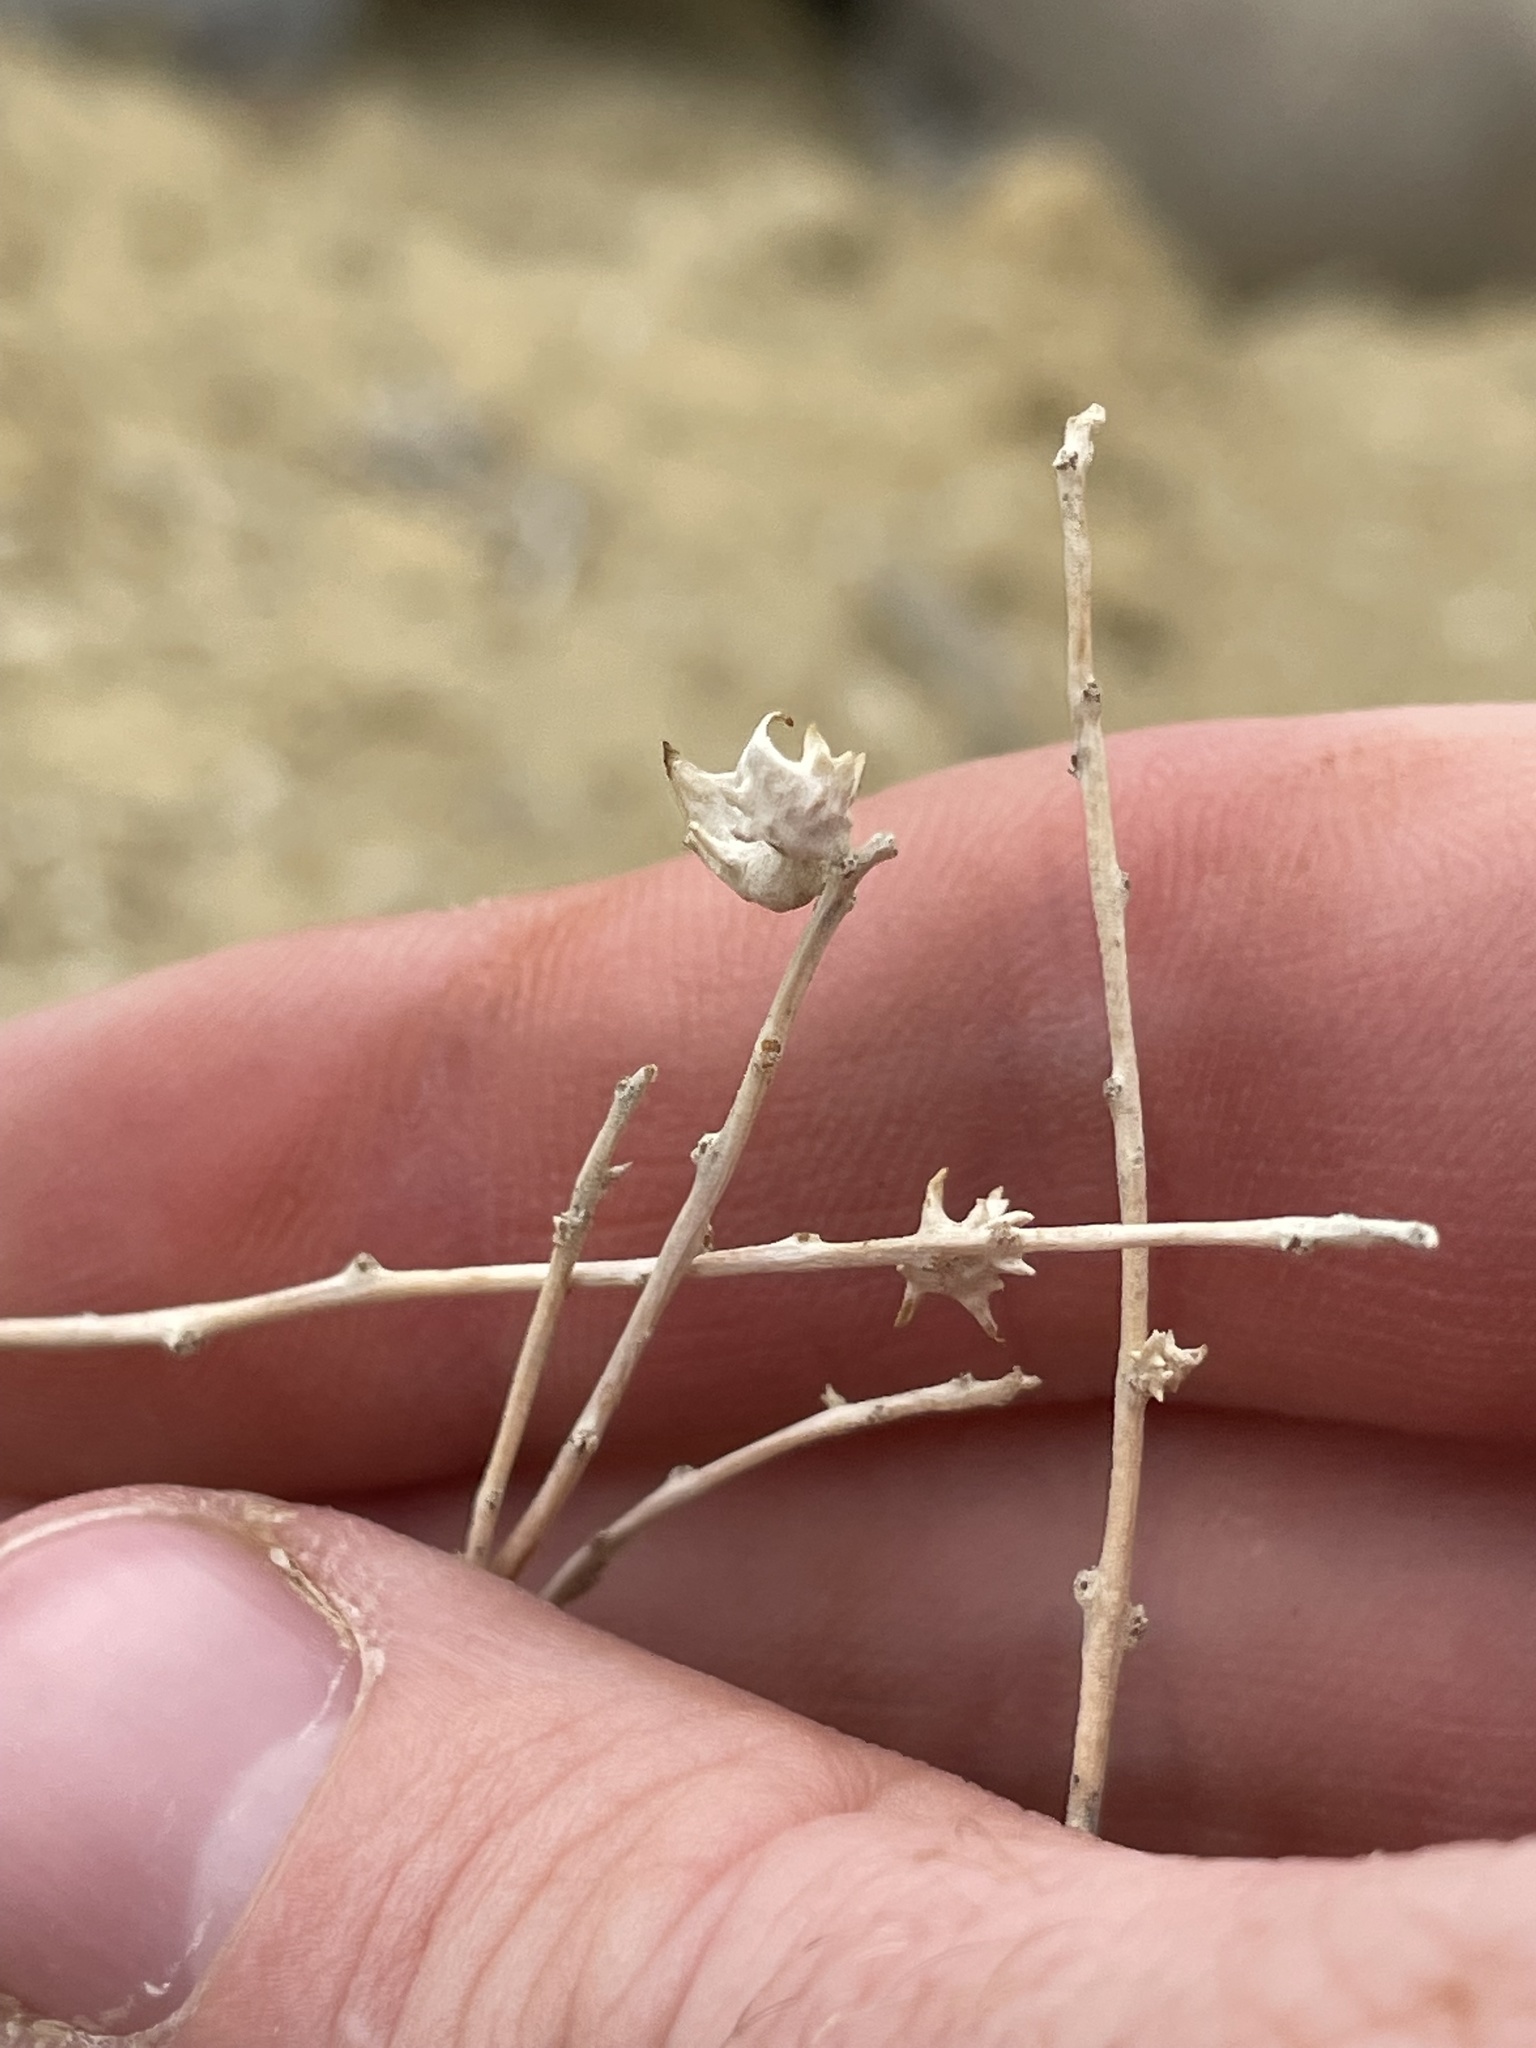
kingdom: Plantae
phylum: Tracheophyta
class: Magnoliopsida
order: Caryophyllales
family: Amaranthaceae
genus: Atriplex
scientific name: Atriplex corrugata
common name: Mat atriplex
